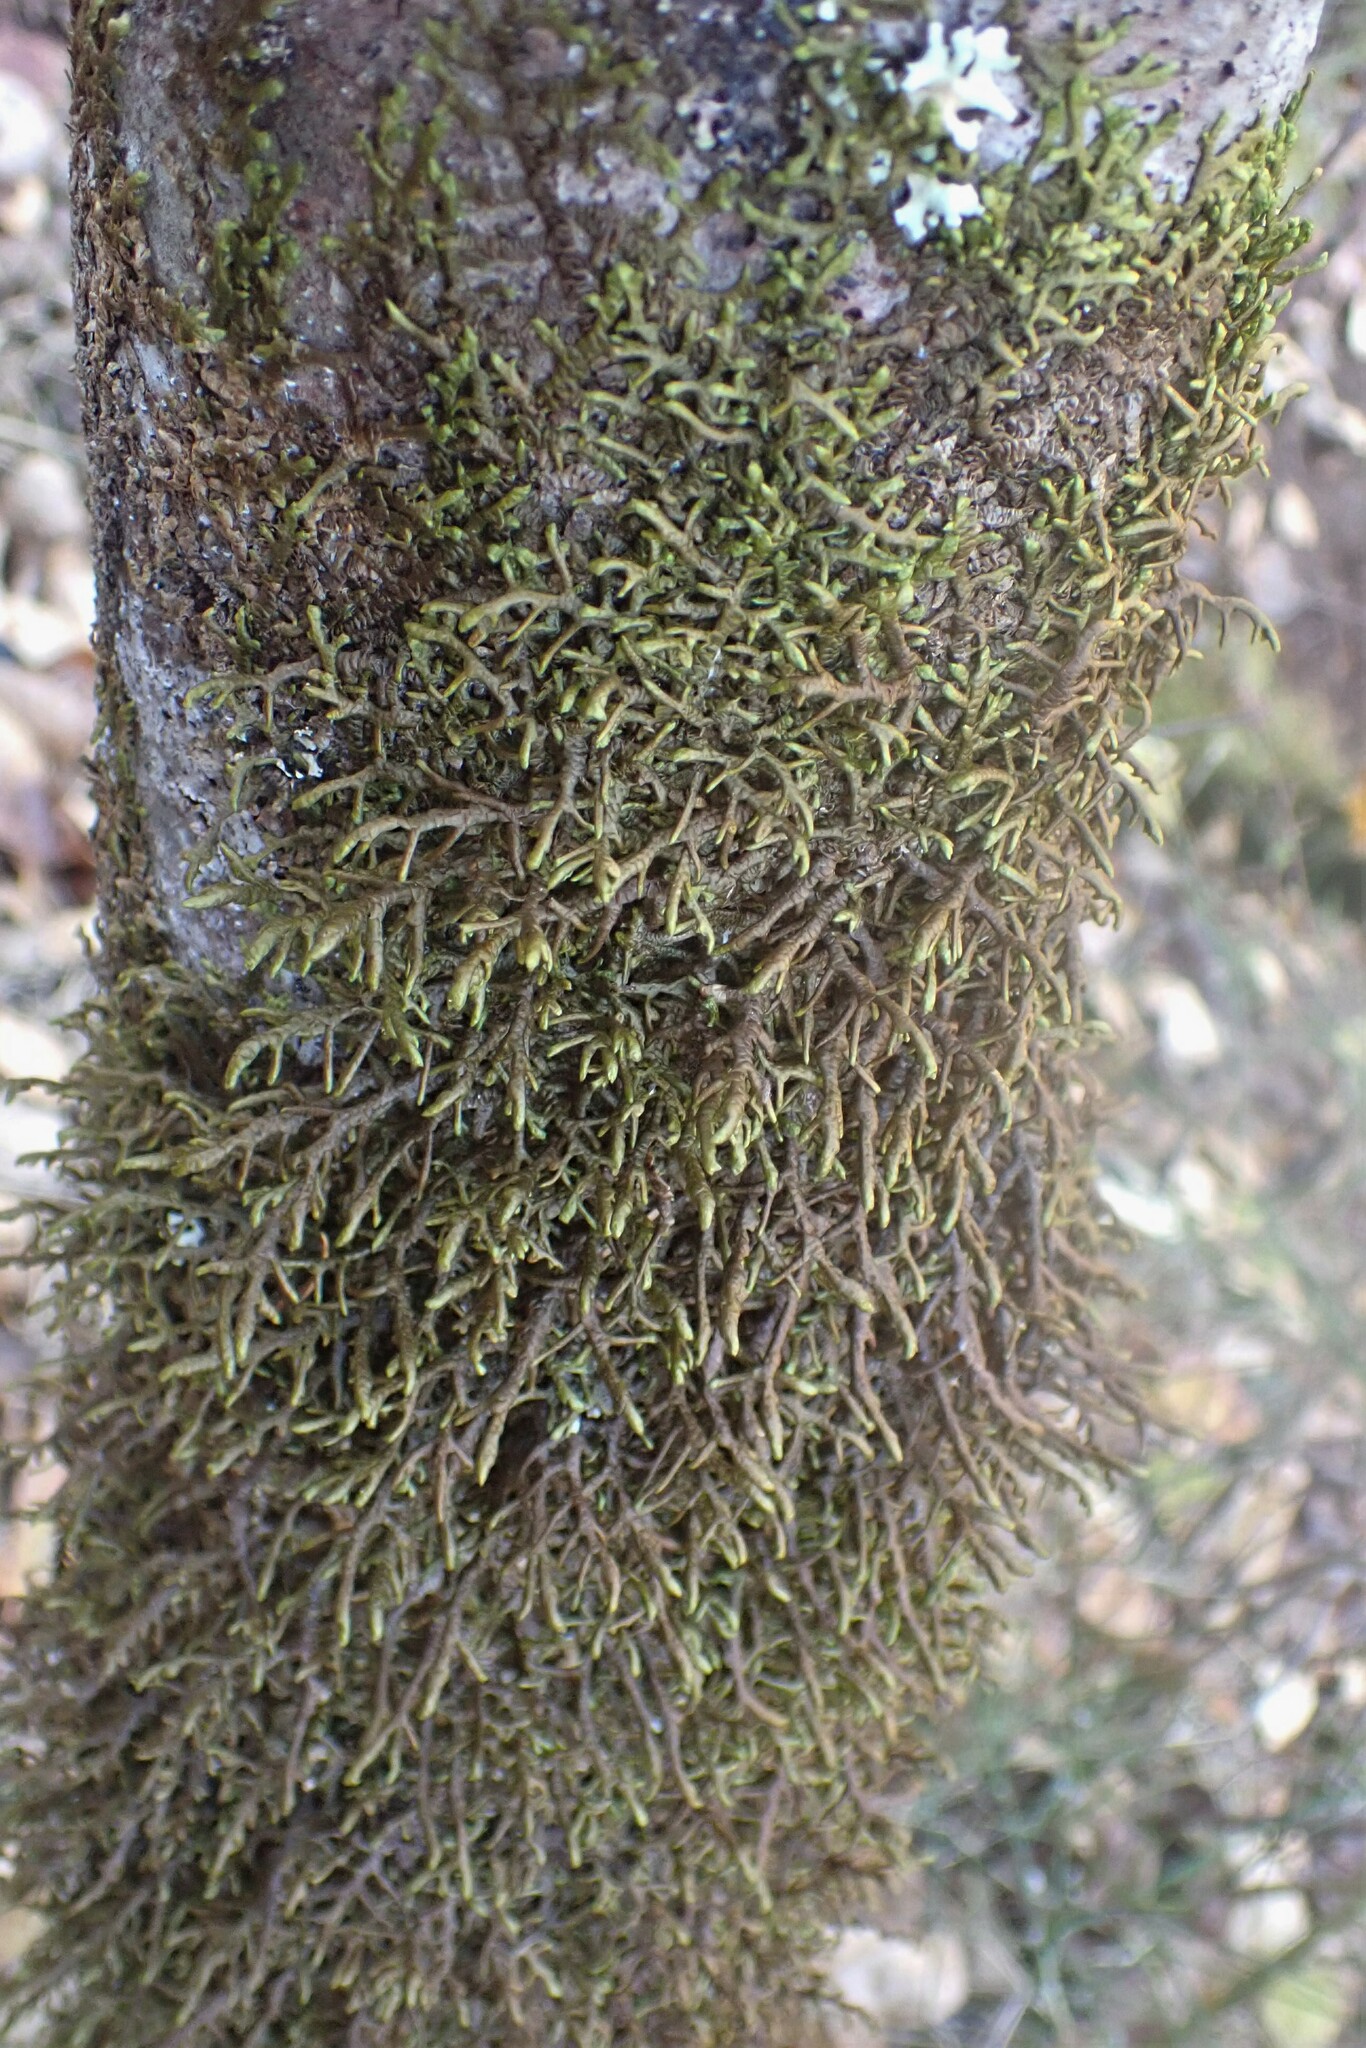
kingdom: Plantae
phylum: Marchantiophyta
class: Jungermanniopsida
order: Porellales
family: Porellaceae
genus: Porella
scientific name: Porella navicularis
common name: Tree ruffle liverwort
